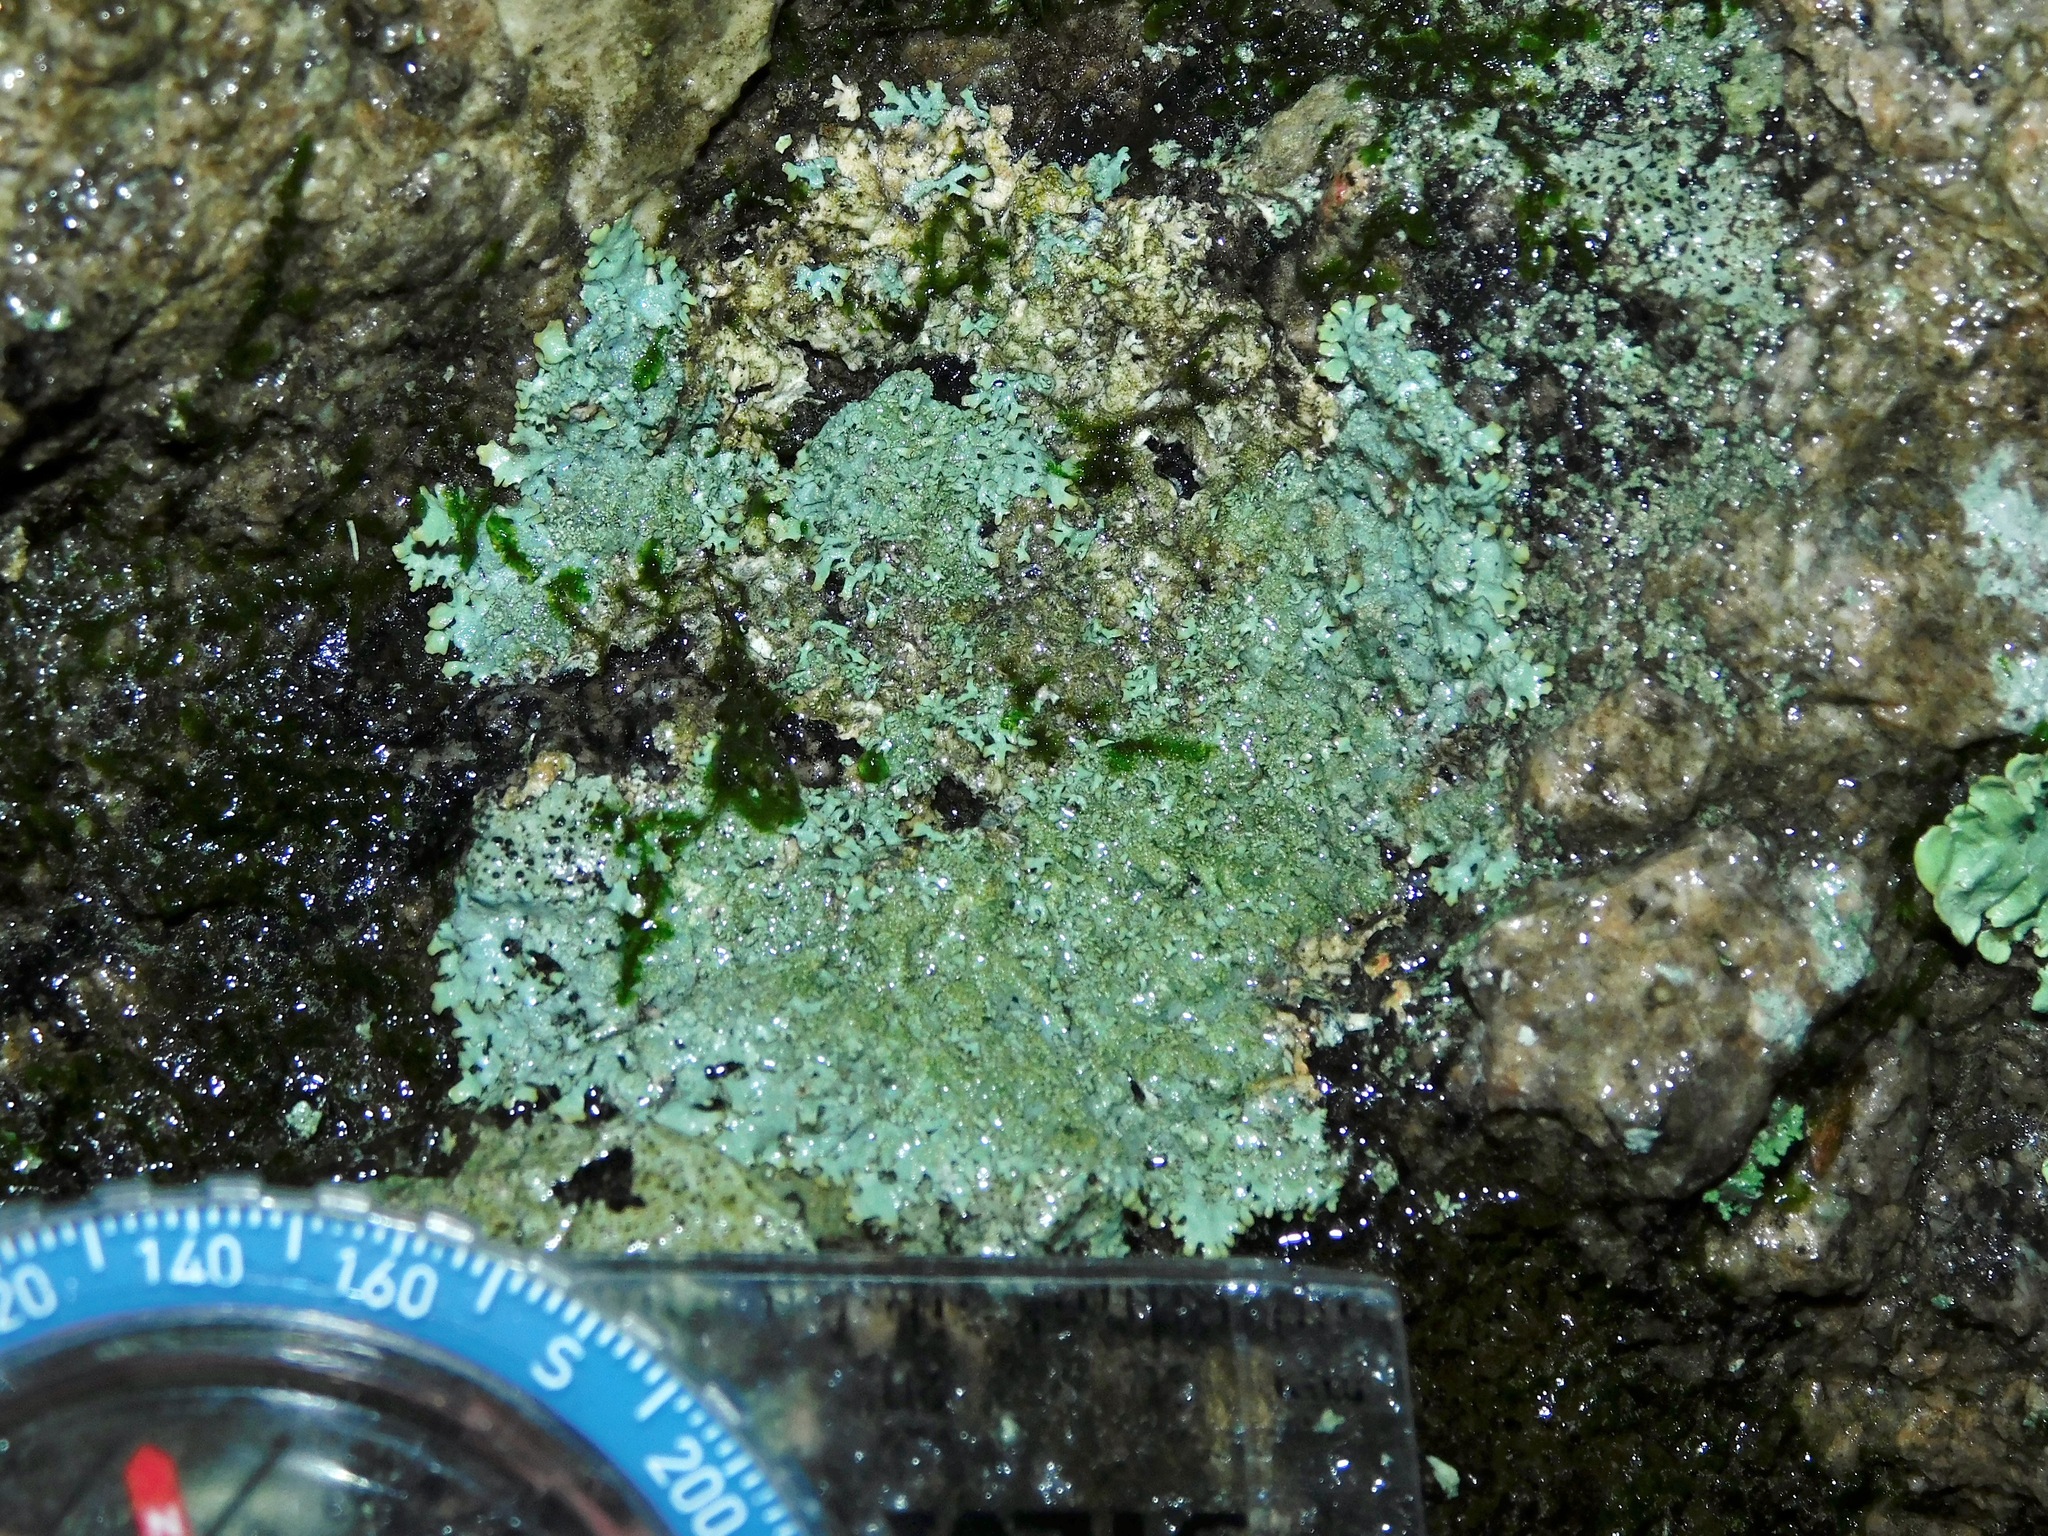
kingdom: Fungi
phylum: Ascomycota
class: Lecanoromycetes
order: Lecanorales
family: Parmeliaceae
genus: Xanthoparmelia
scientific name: Xanthoparmelia plittii
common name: Plitt's rock shield
